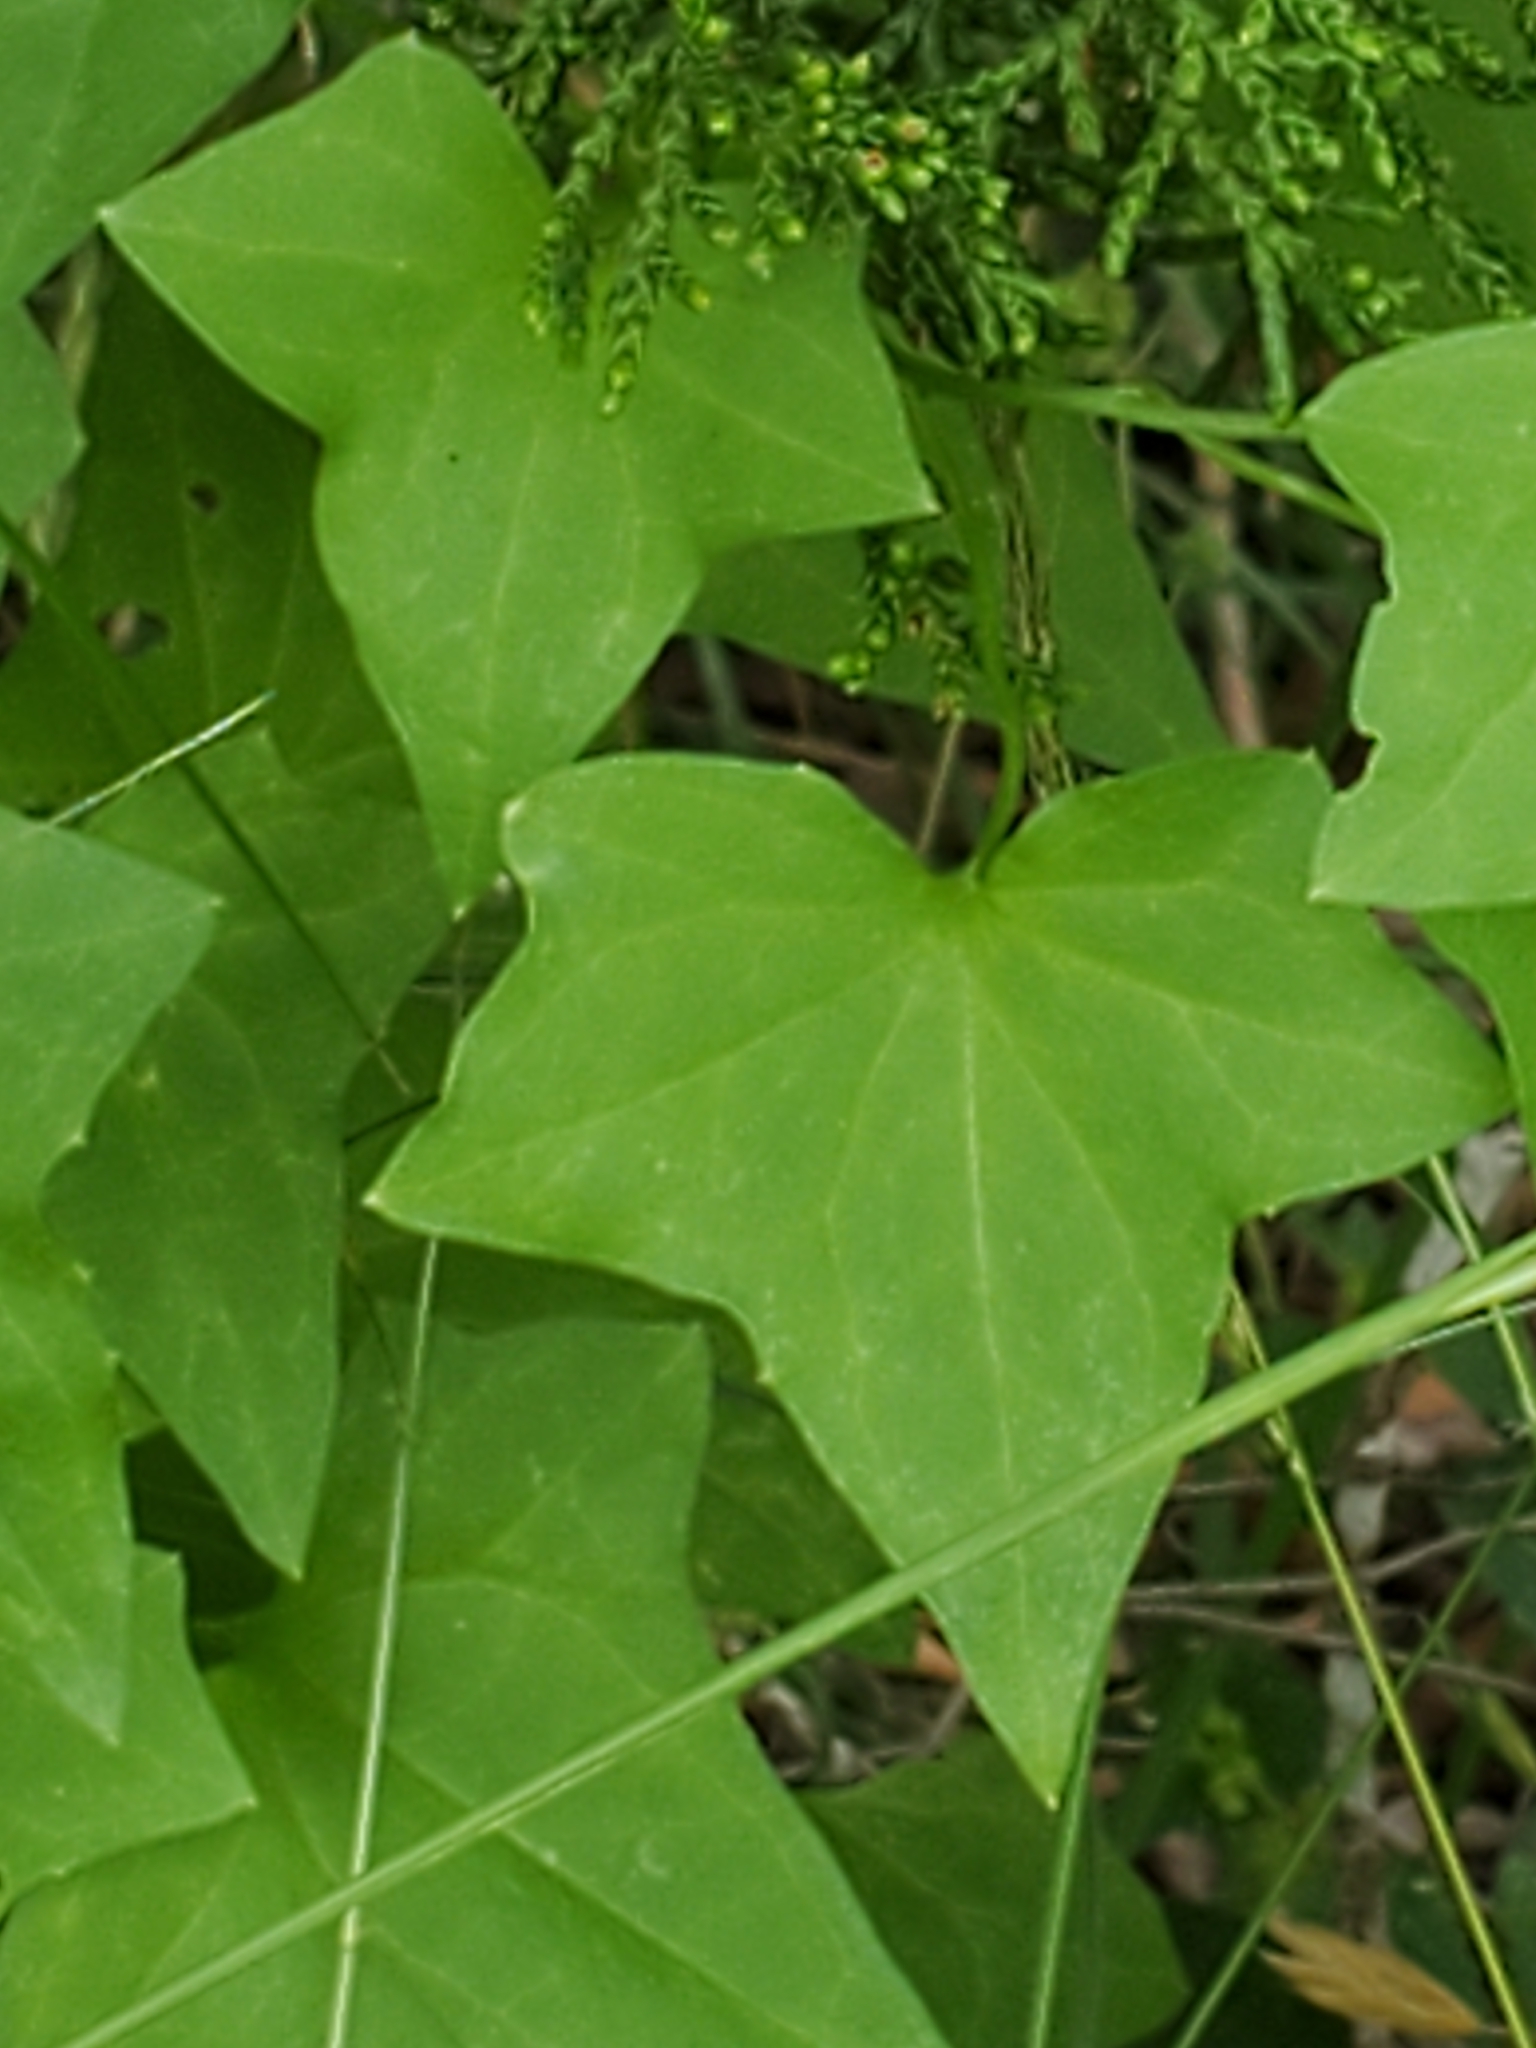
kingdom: Plantae
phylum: Tracheophyta
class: Magnoliopsida
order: Lamiales
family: Plantaginaceae
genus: Maurandella
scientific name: Maurandella antirrhiniflora
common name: Violet twining-snapdragon
